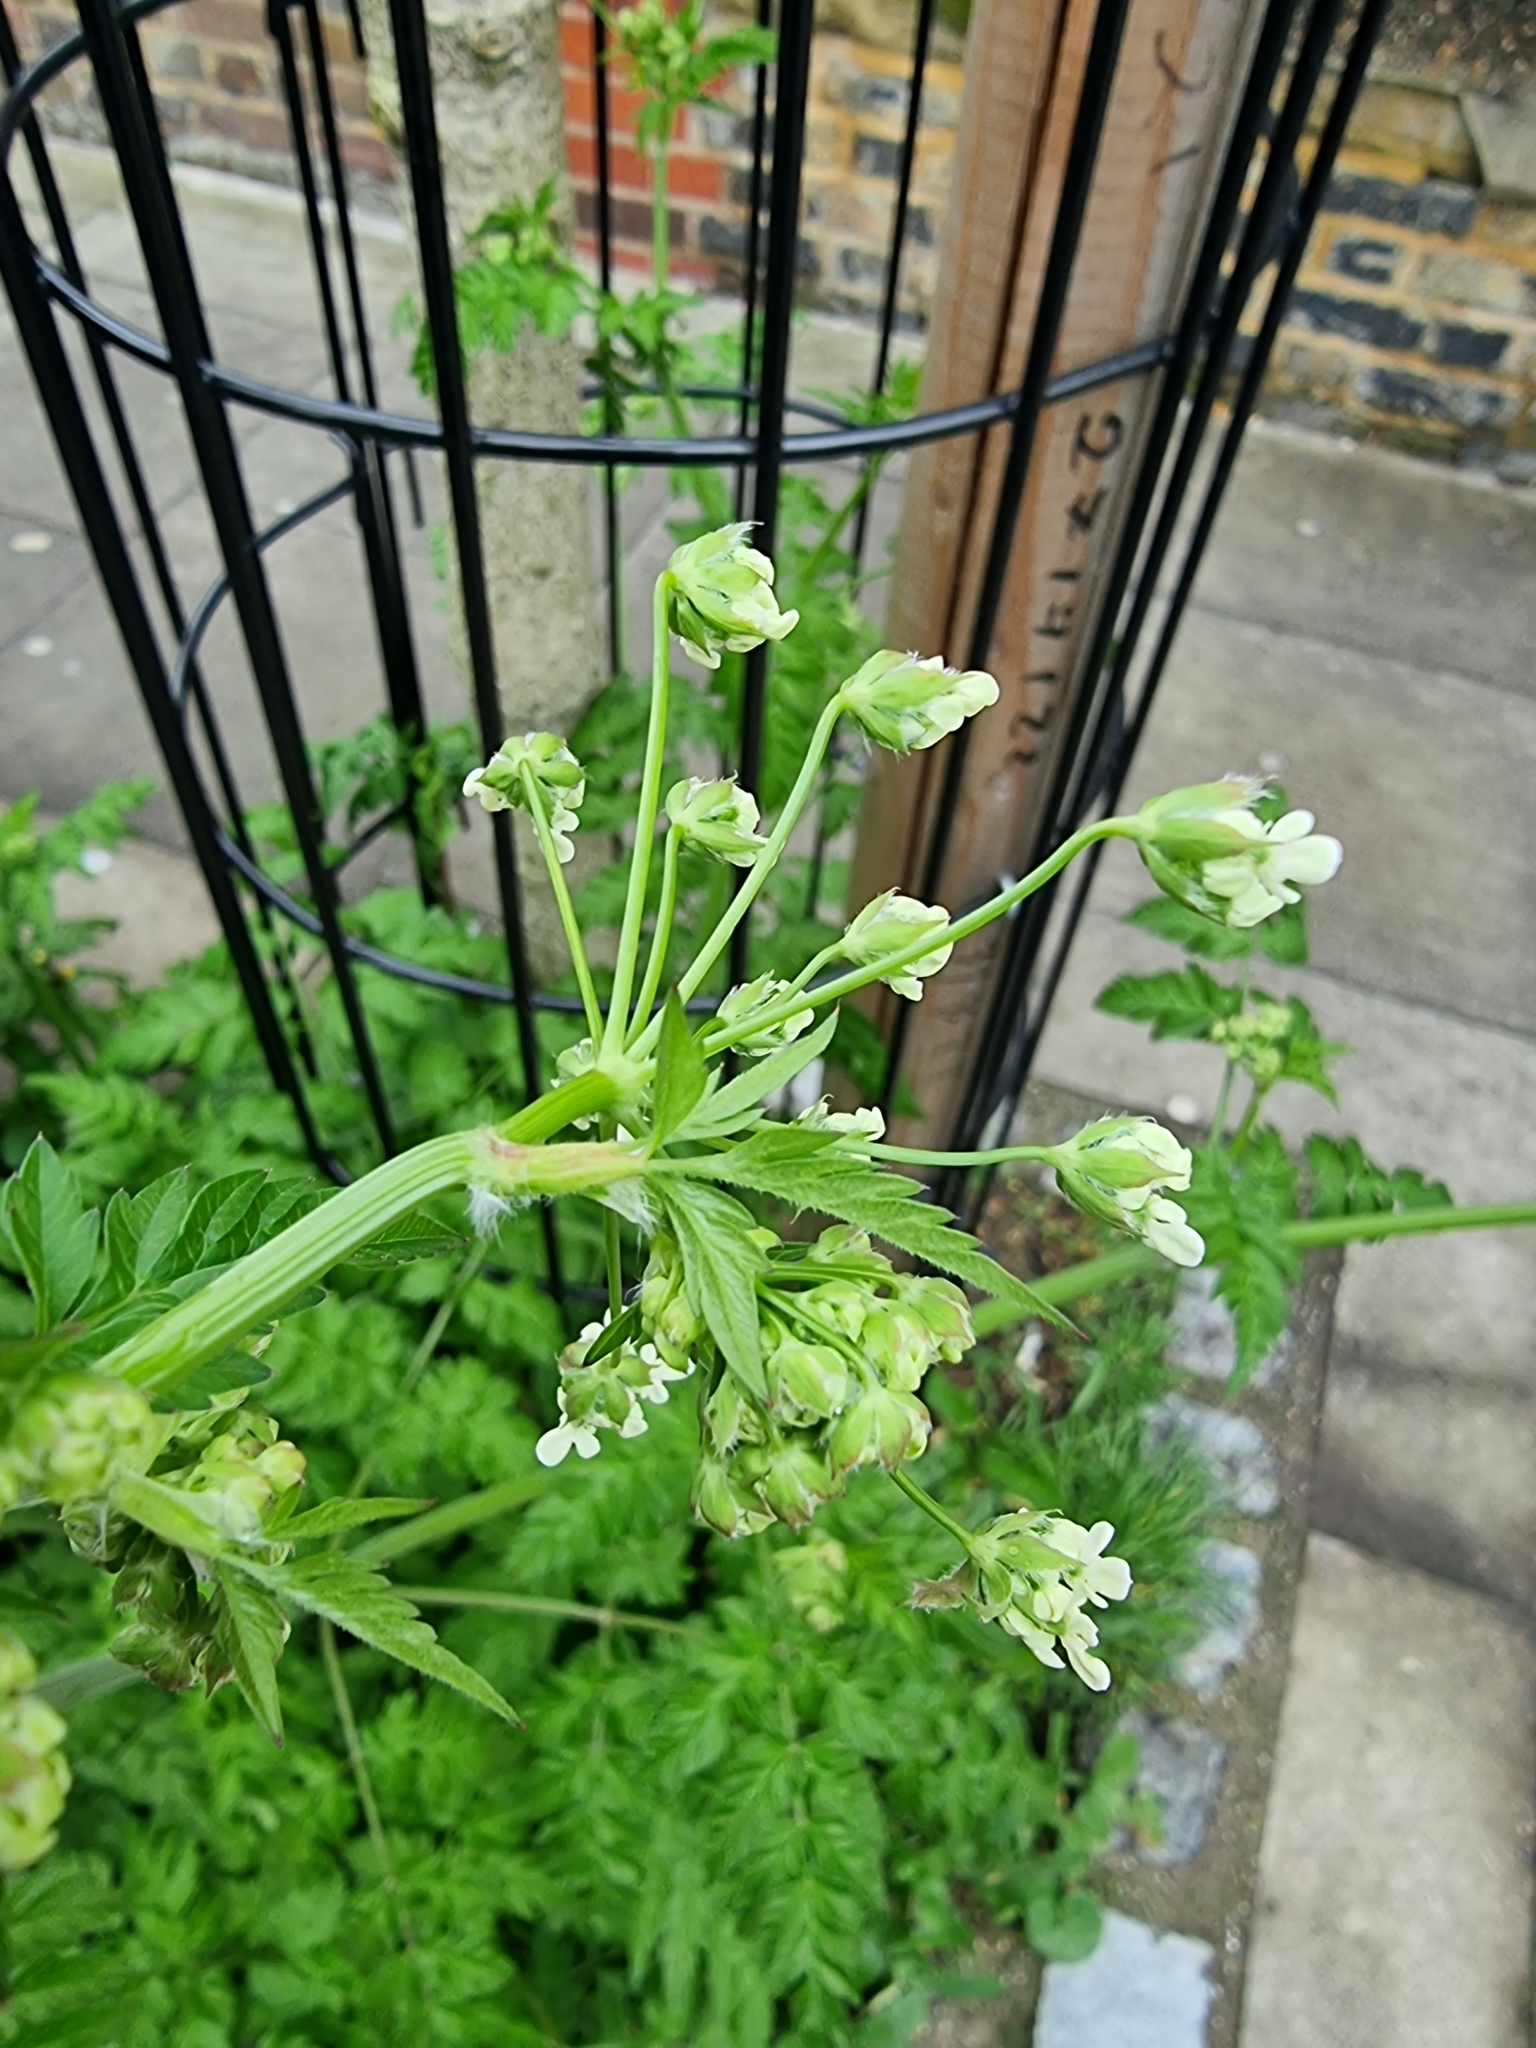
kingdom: Plantae
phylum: Tracheophyta
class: Magnoliopsida
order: Apiales
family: Apiaceae
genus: Anthriscus
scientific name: Anthriscus sylvestris
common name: Cow parsley
